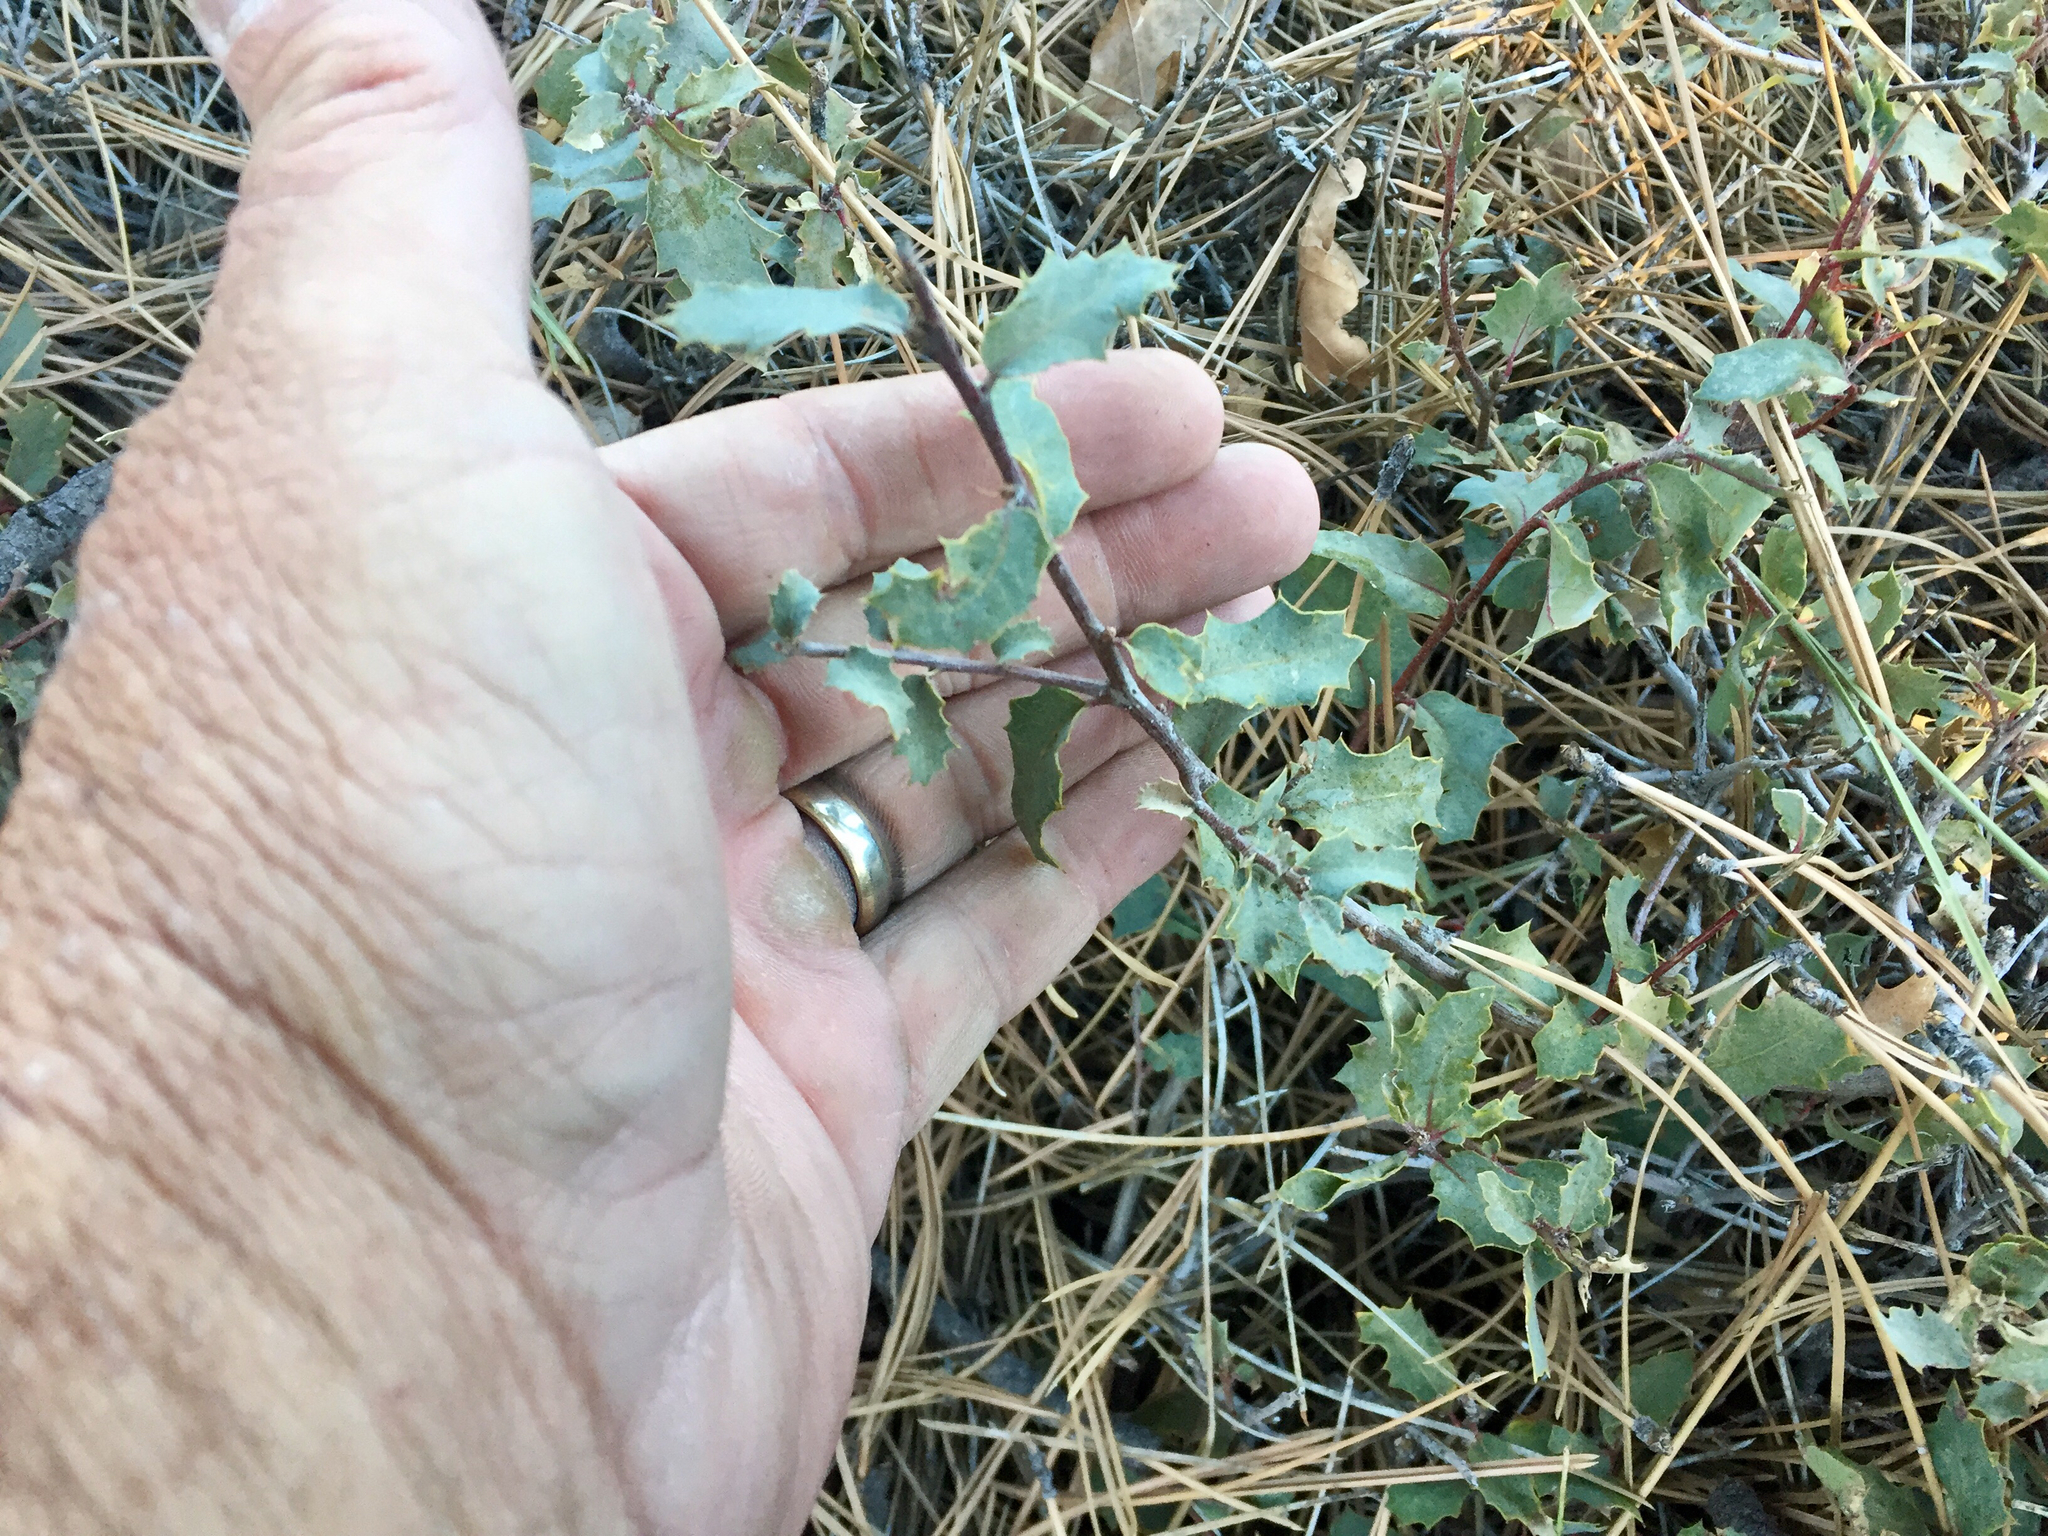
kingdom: Plantae
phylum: Tracheophyta
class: Magnoliopsida
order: Fagales
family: Fagaceae
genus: Quercus
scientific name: Quercus turbinella
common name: Sonoran scrub oak
